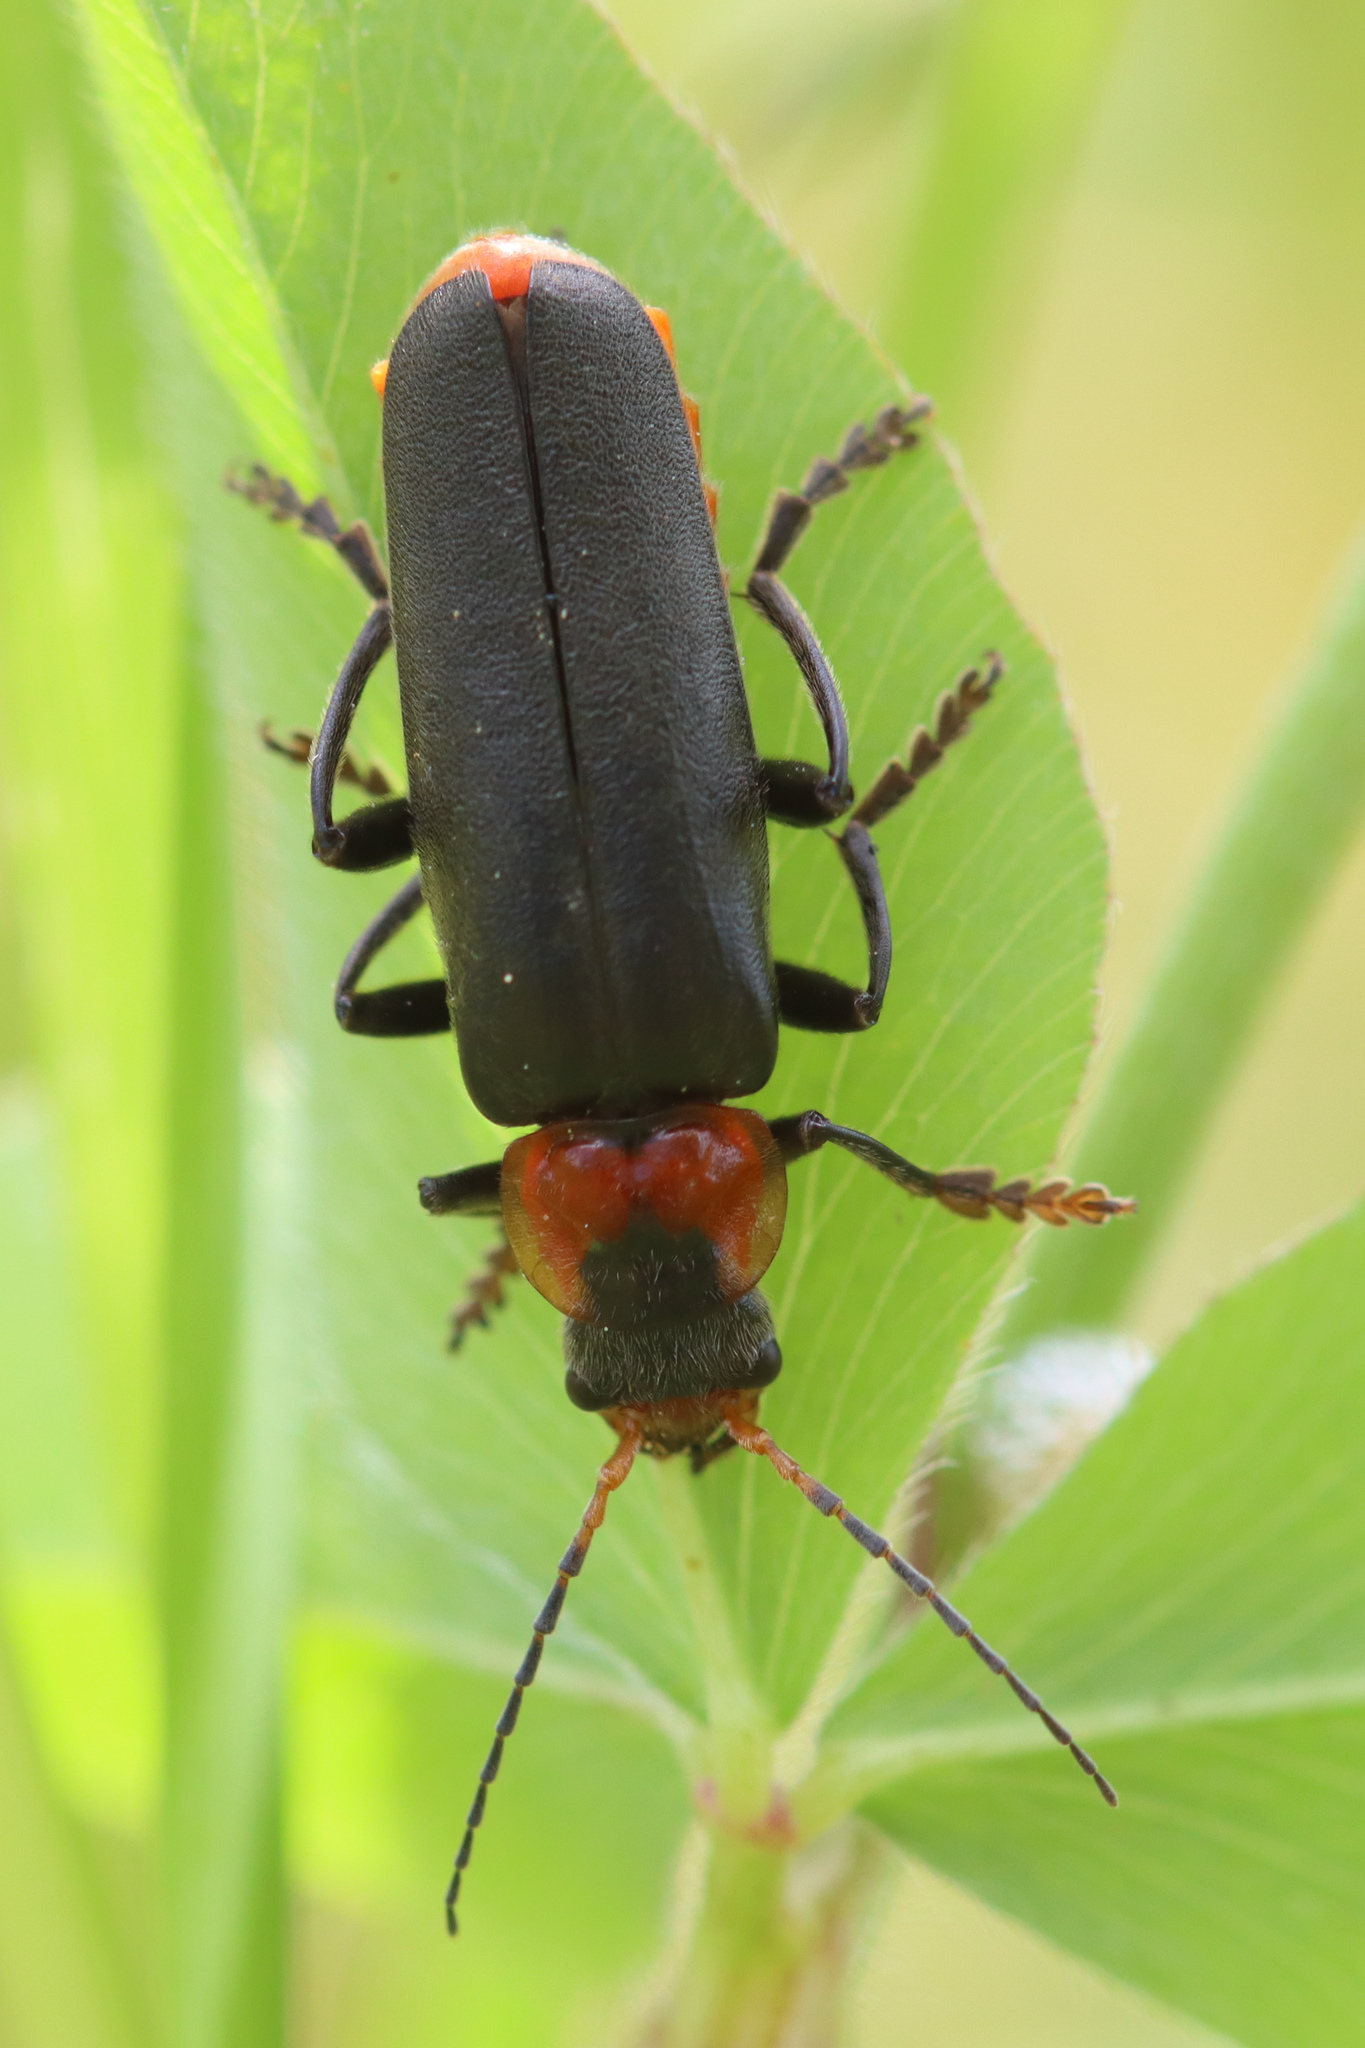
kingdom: Animalia
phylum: Arthropoda
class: Insecta
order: Coleoptera
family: Cantharidae
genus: Cantharis
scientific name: Cantharis fusca
